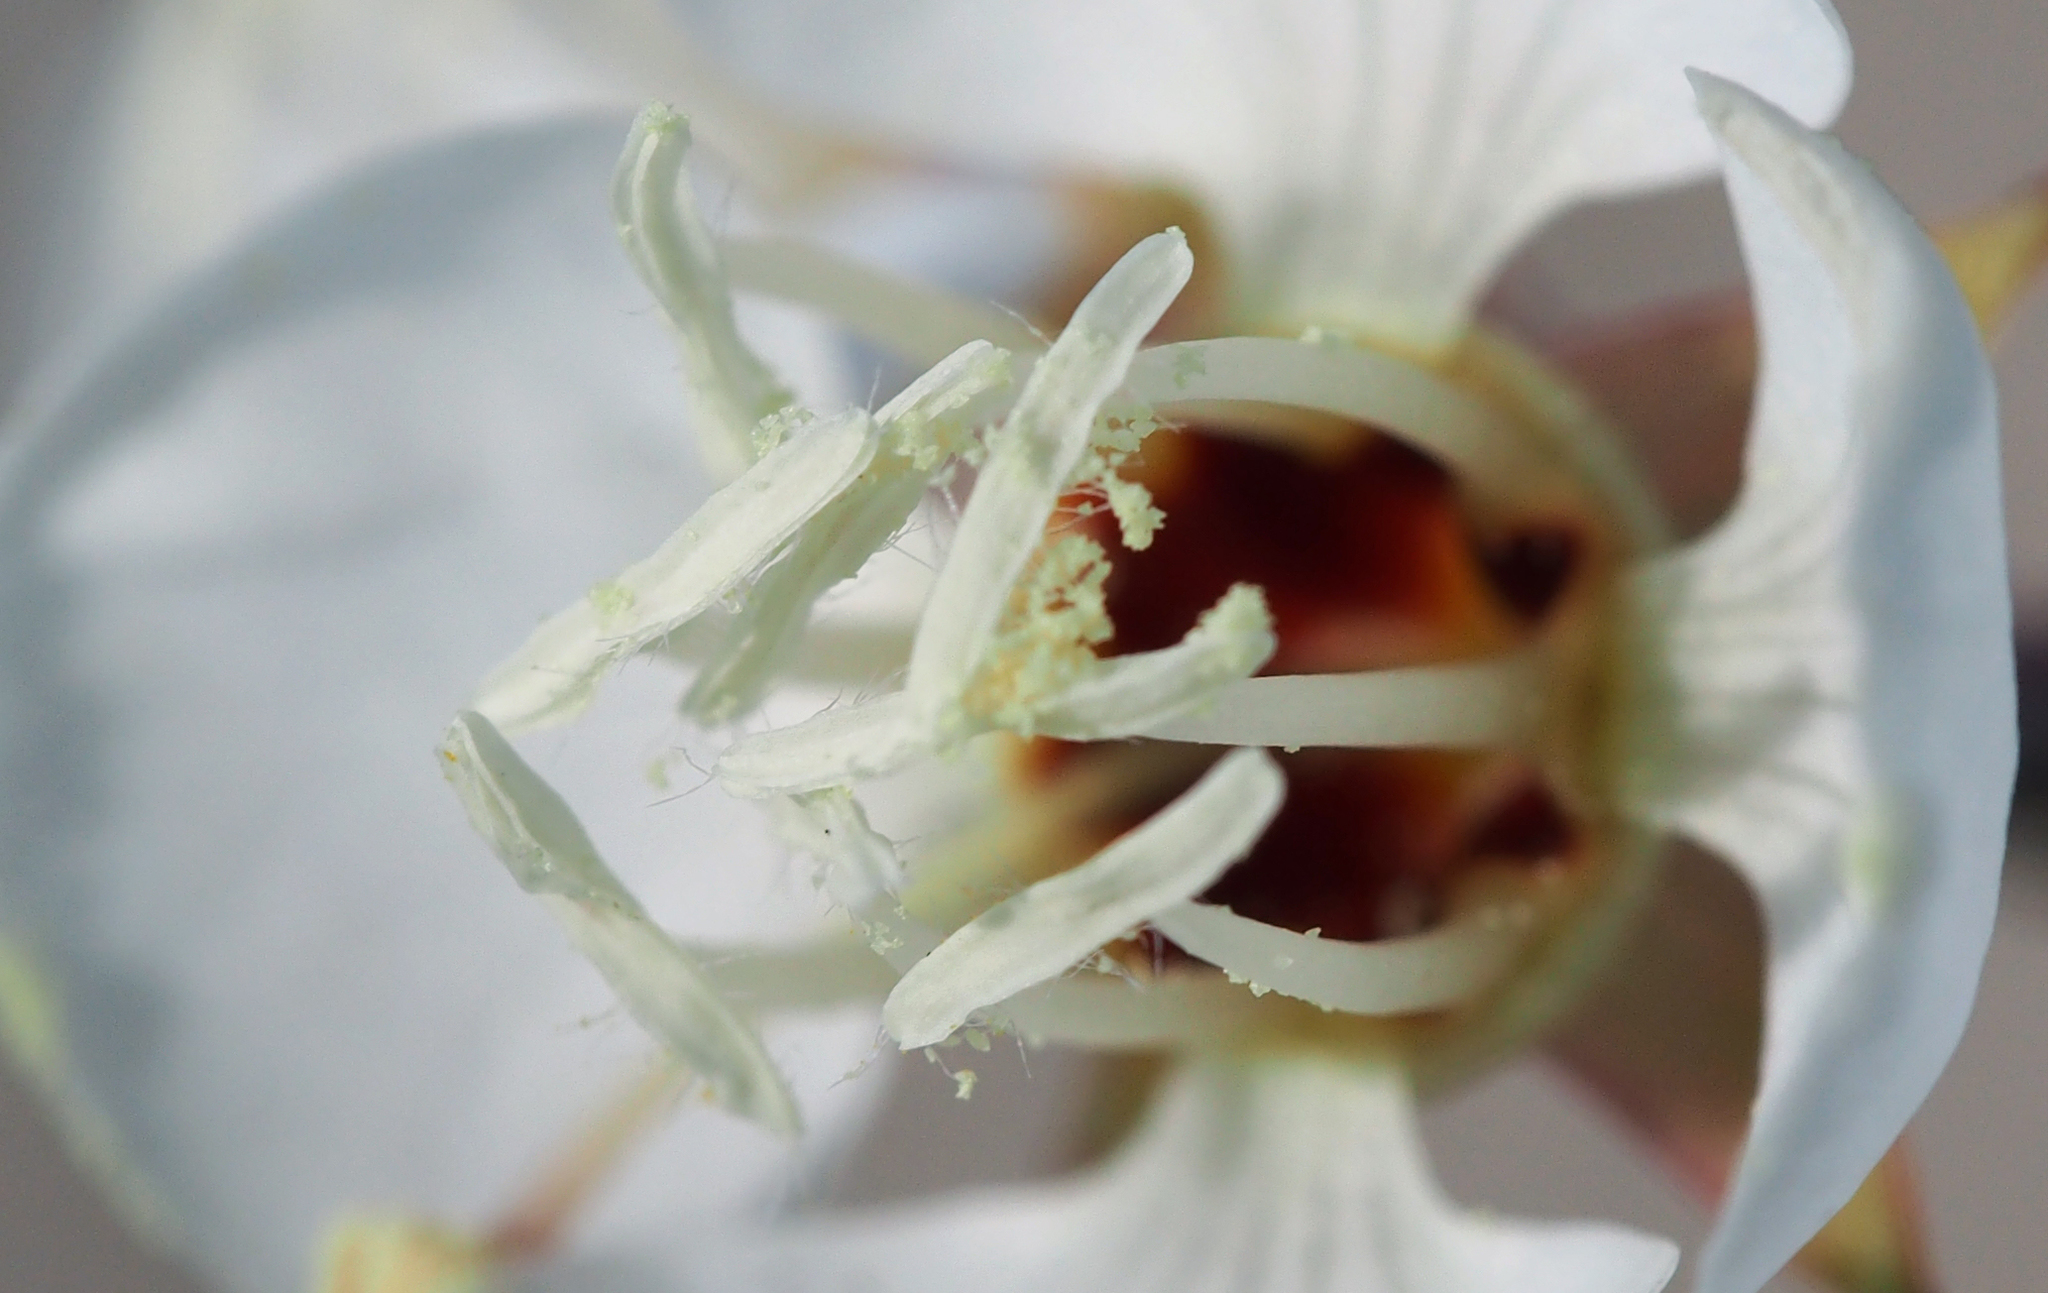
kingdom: Plantae
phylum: Tracheophyta
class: Magnoliopsida
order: Myrtales
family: Onagraceae
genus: Chylismia
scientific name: Chylismia claviformis
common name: Browneyes
